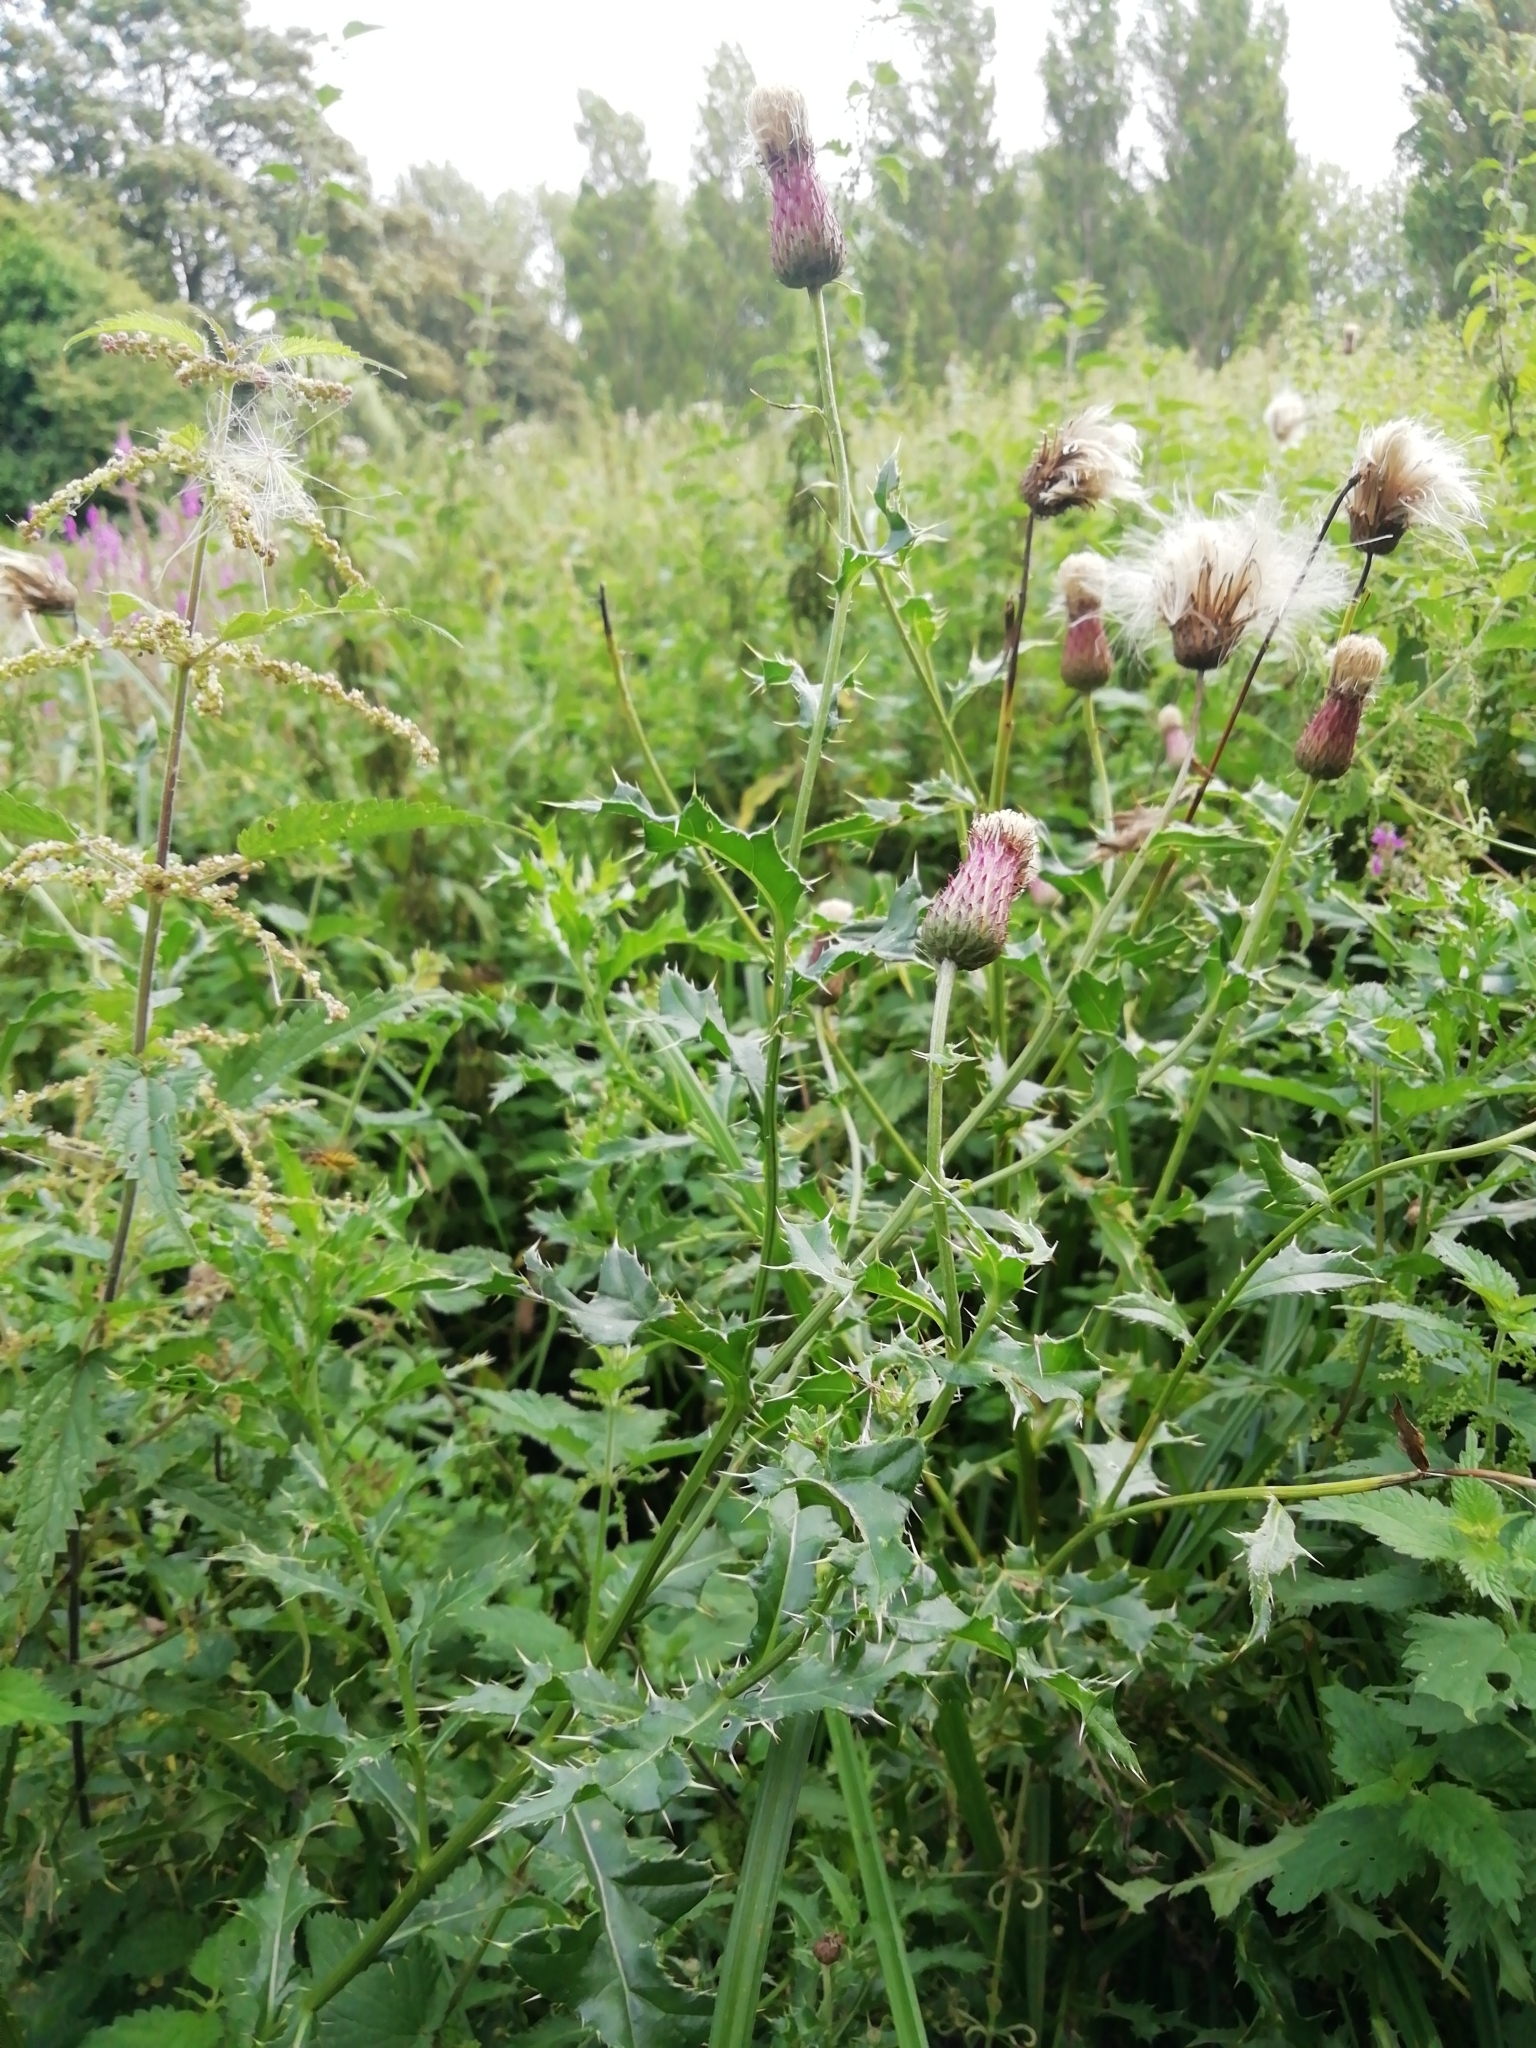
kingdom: Plantae
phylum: Tracheophyta
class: Magnoliopsida
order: Asterales
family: Asteraceae
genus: Cirsium
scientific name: Cirsium arvense
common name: Creeping thistle
